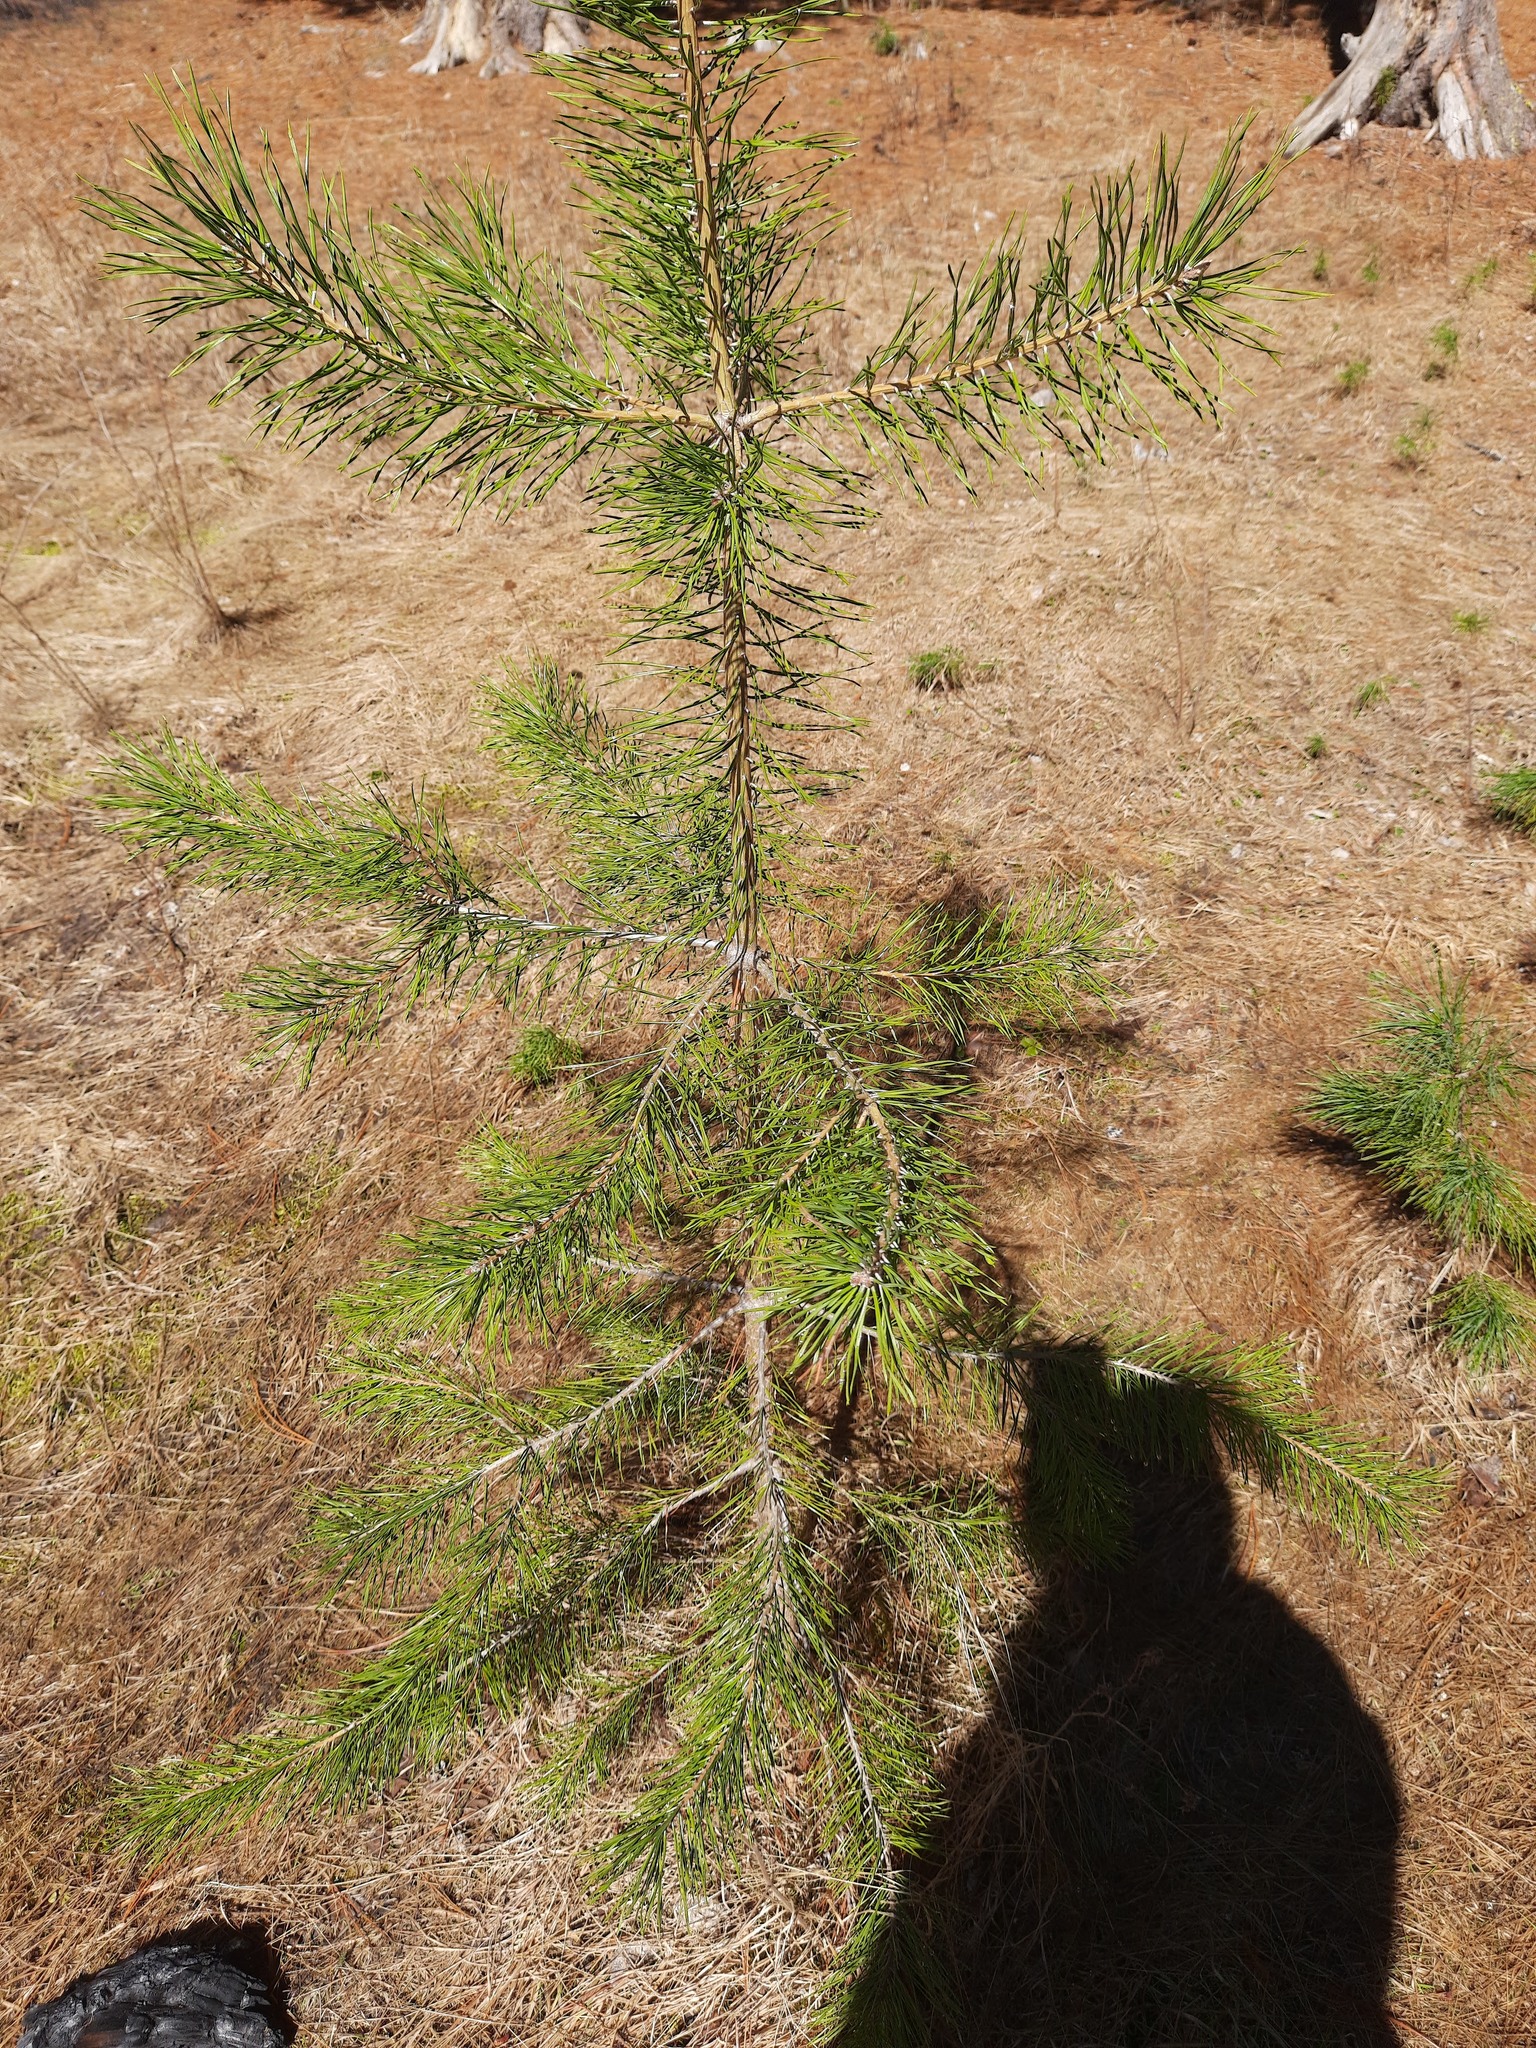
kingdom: Plantae
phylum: Tracheophyta
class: Pinopsida
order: Pinales
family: Pinaceae
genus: Pinus
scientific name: Pinus sylvestris
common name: Scots pine
